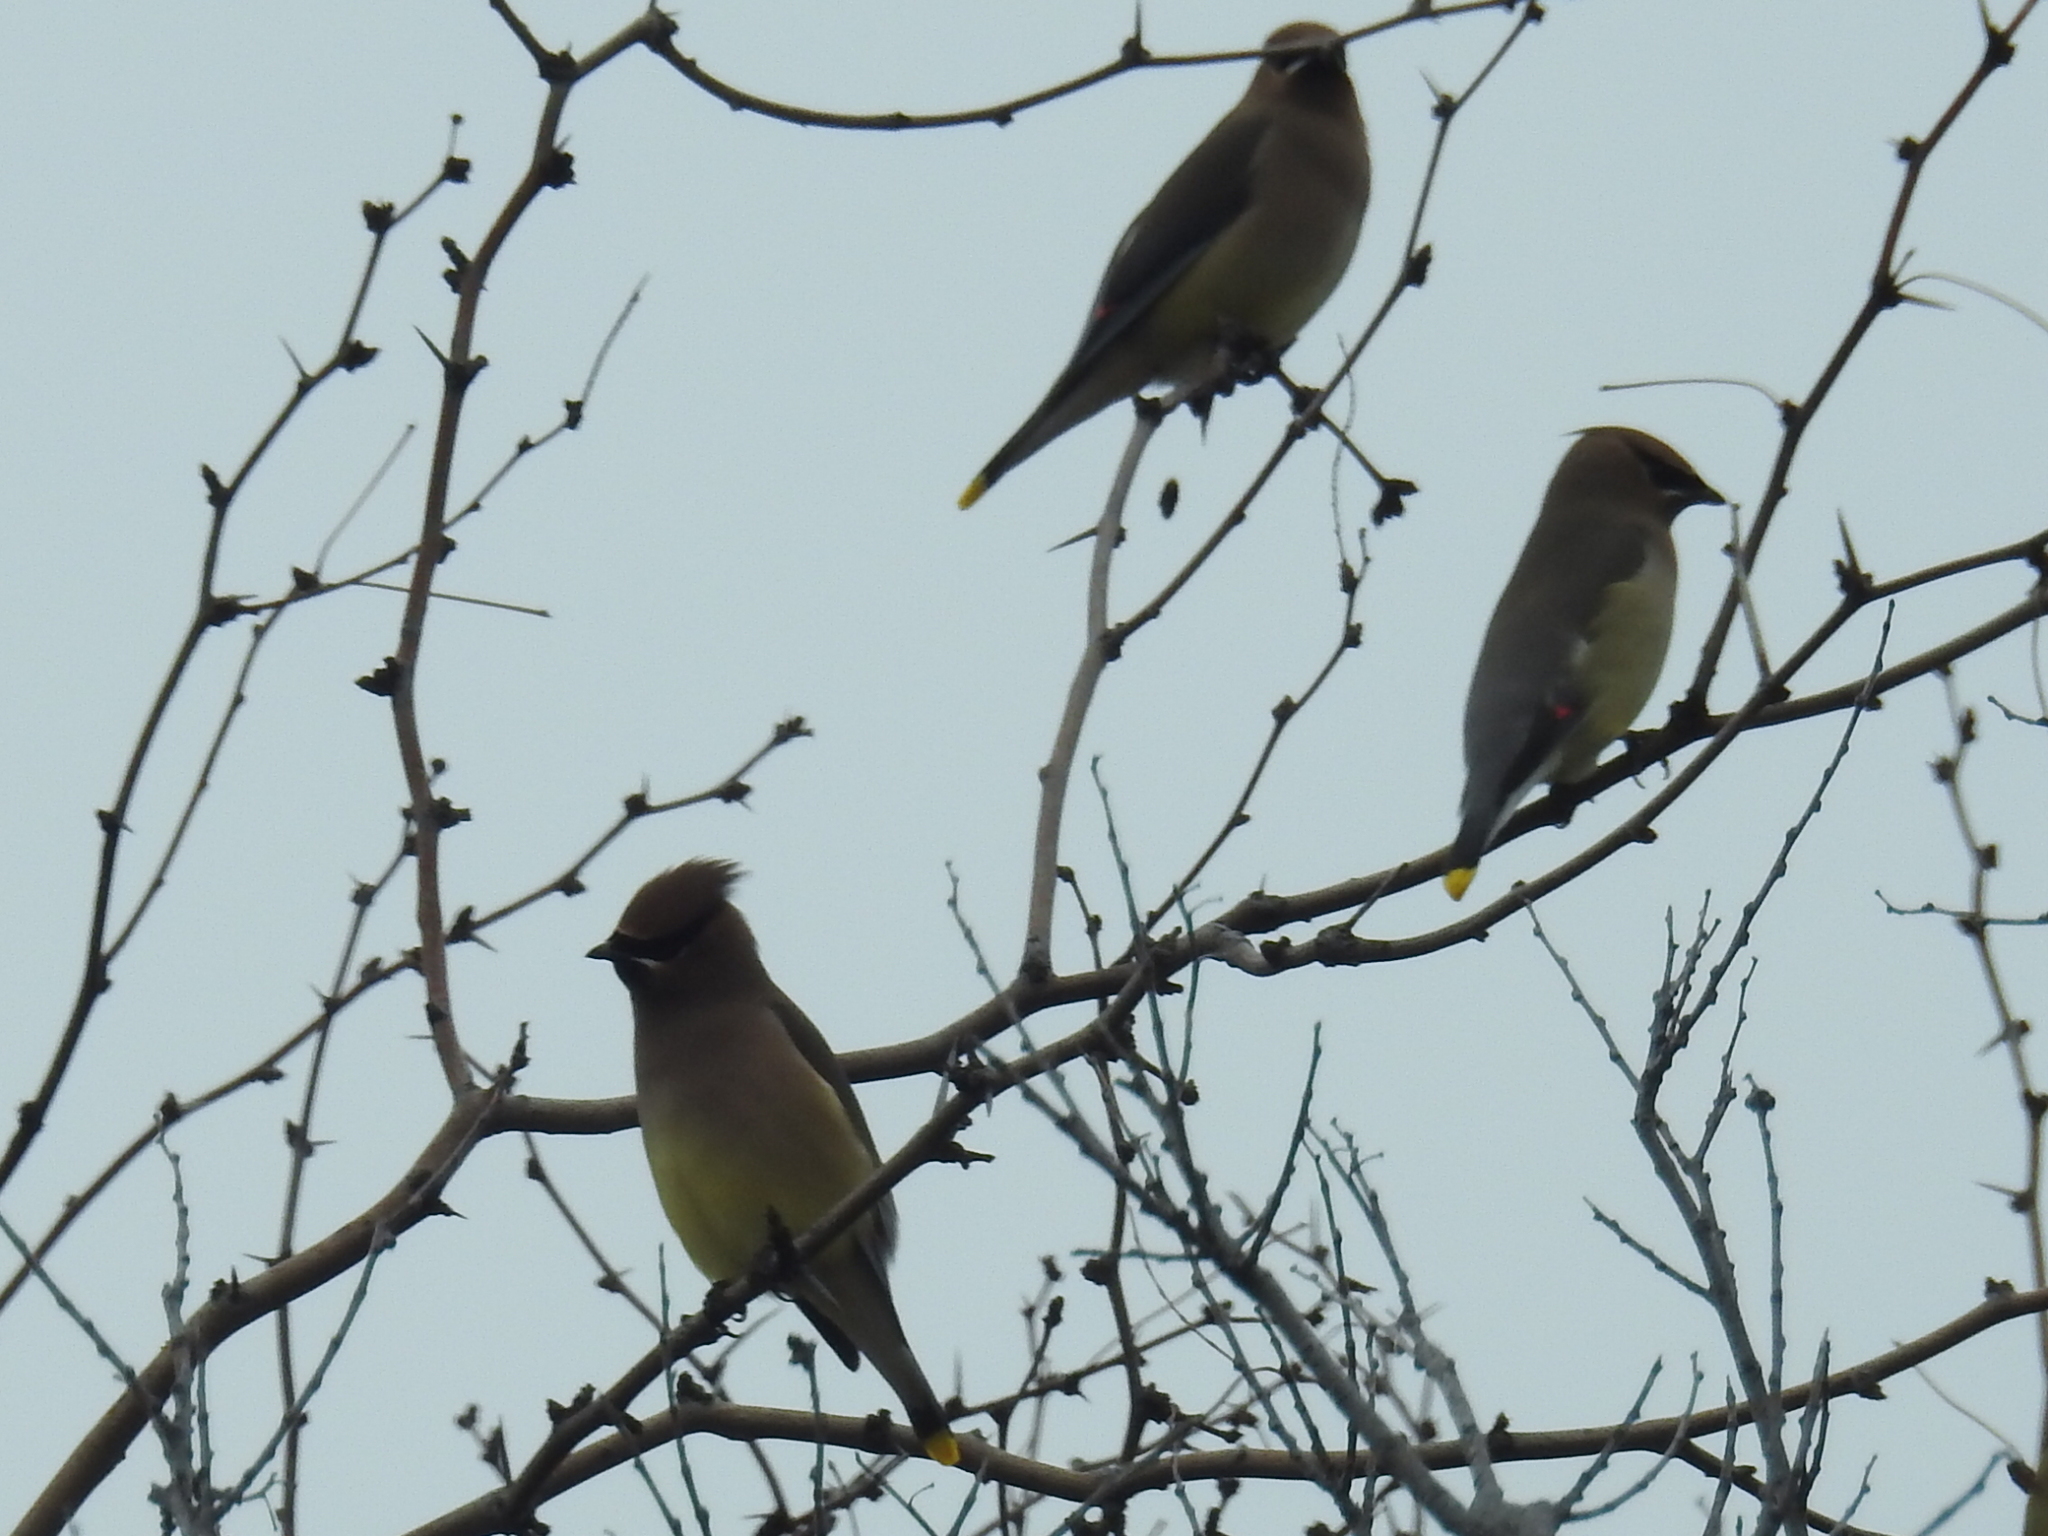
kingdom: Animalia
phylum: Chordata
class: Aves
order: Passeriformes
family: Bombycillidae
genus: Bombycilla
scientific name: Bombycilla cedrorum
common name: Cedar waxwing
